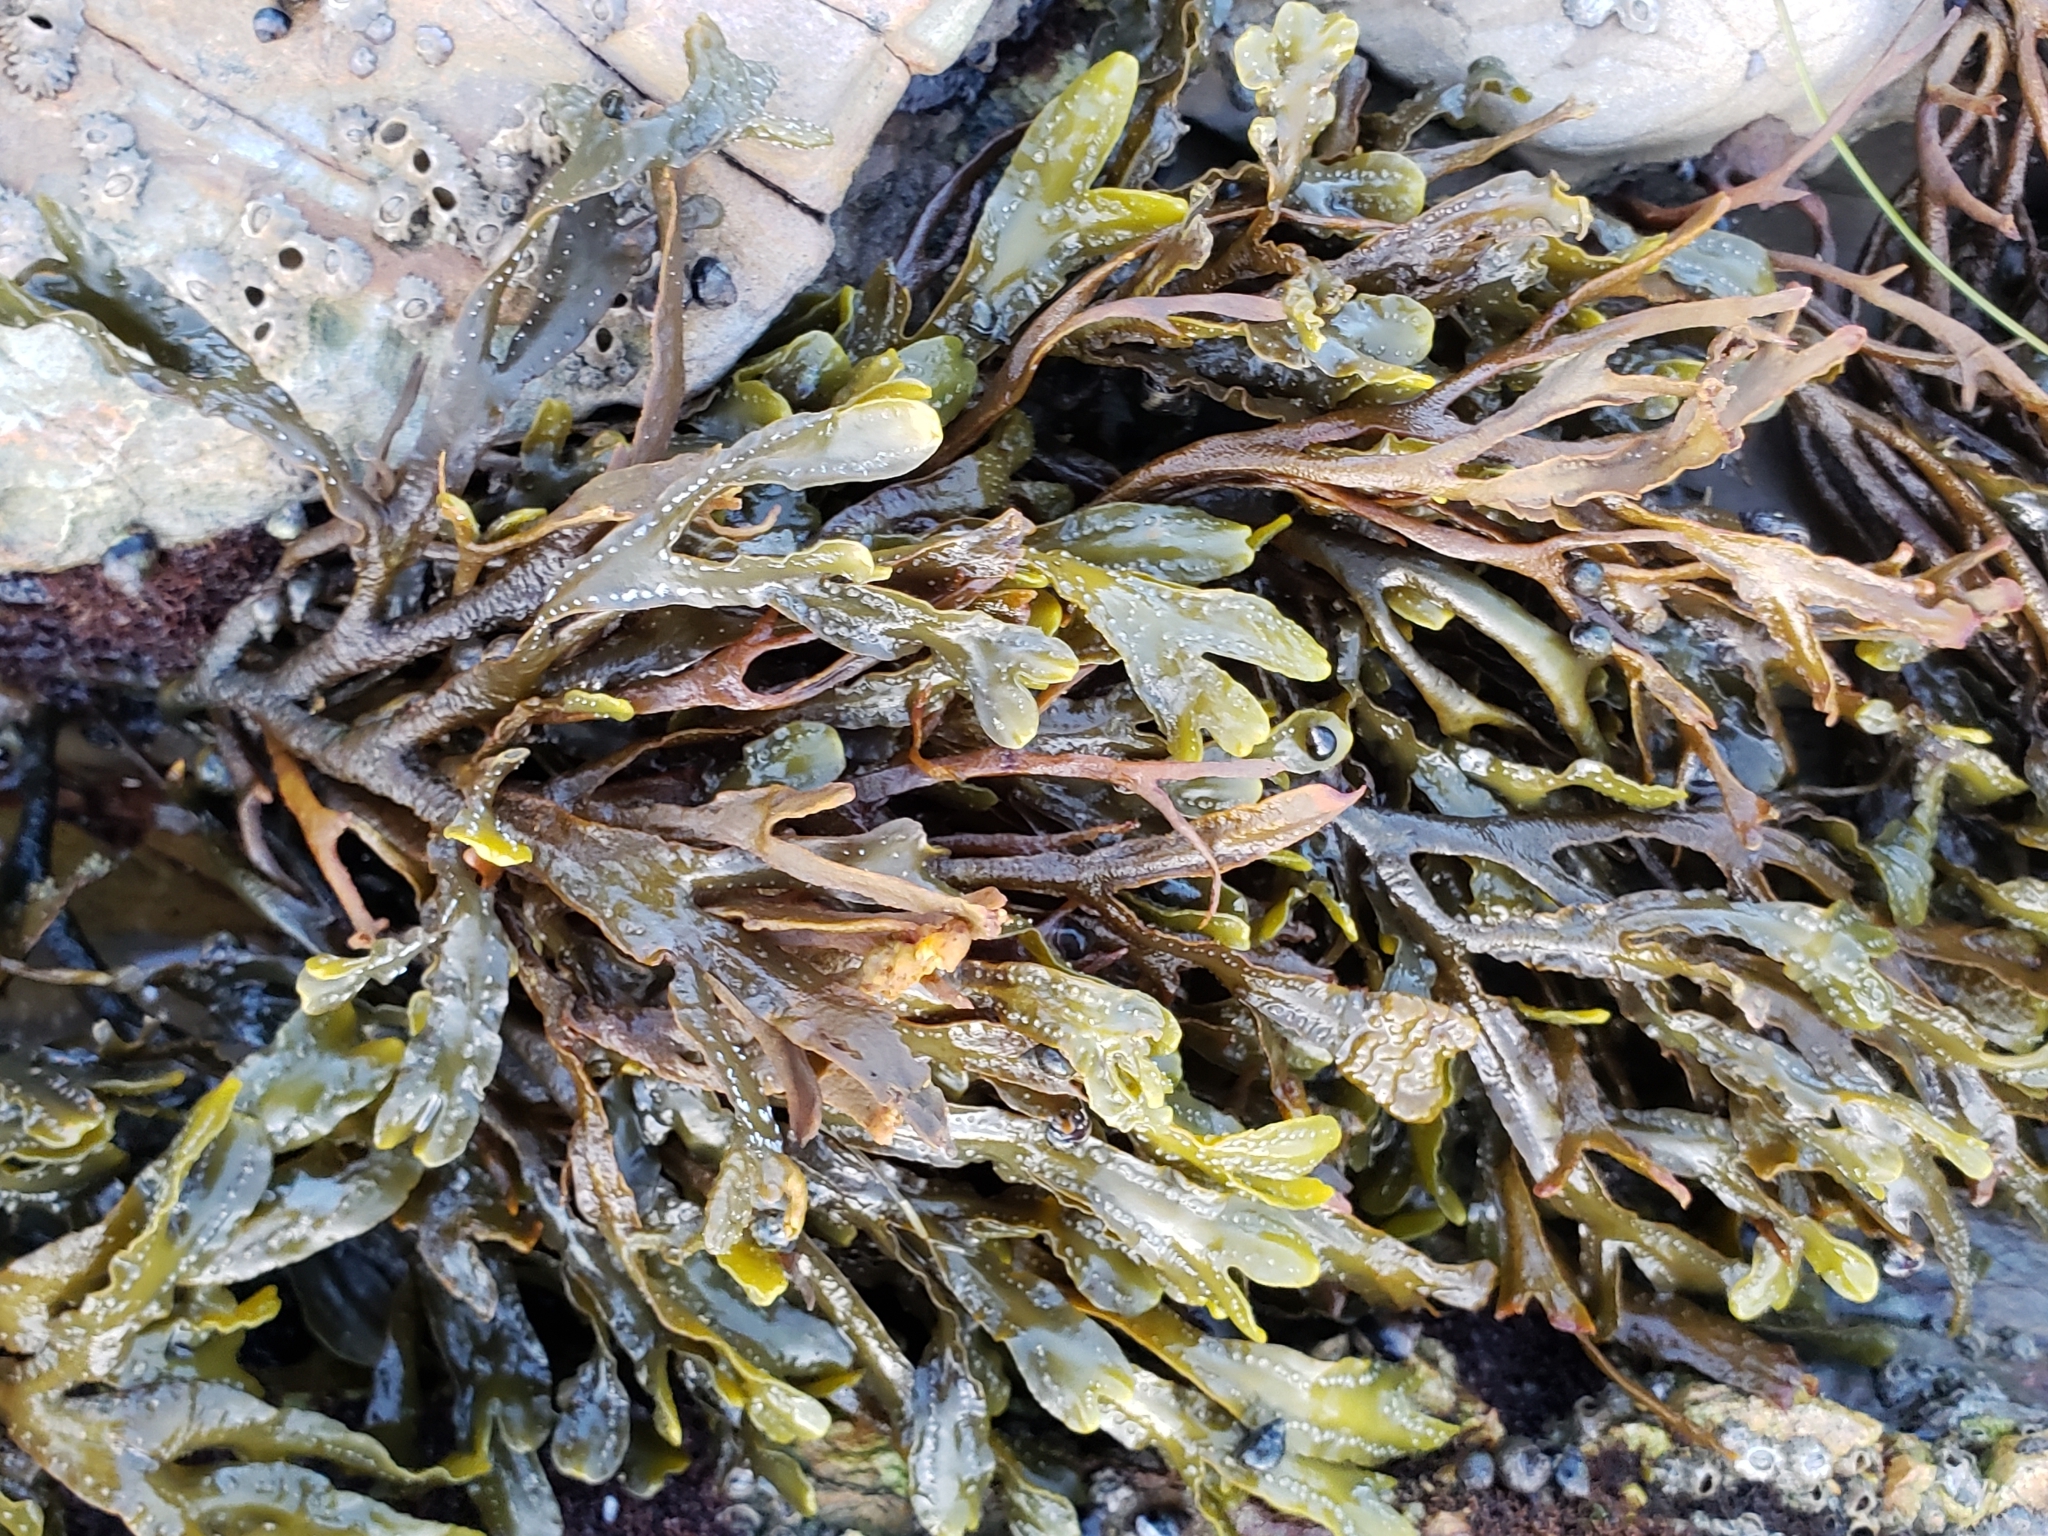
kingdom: Chromista
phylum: Ochrophyta
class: Phaeophyceae
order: Fucales
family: Fucaceae
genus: Pelvetiopsis
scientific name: Pelvetiopsis
